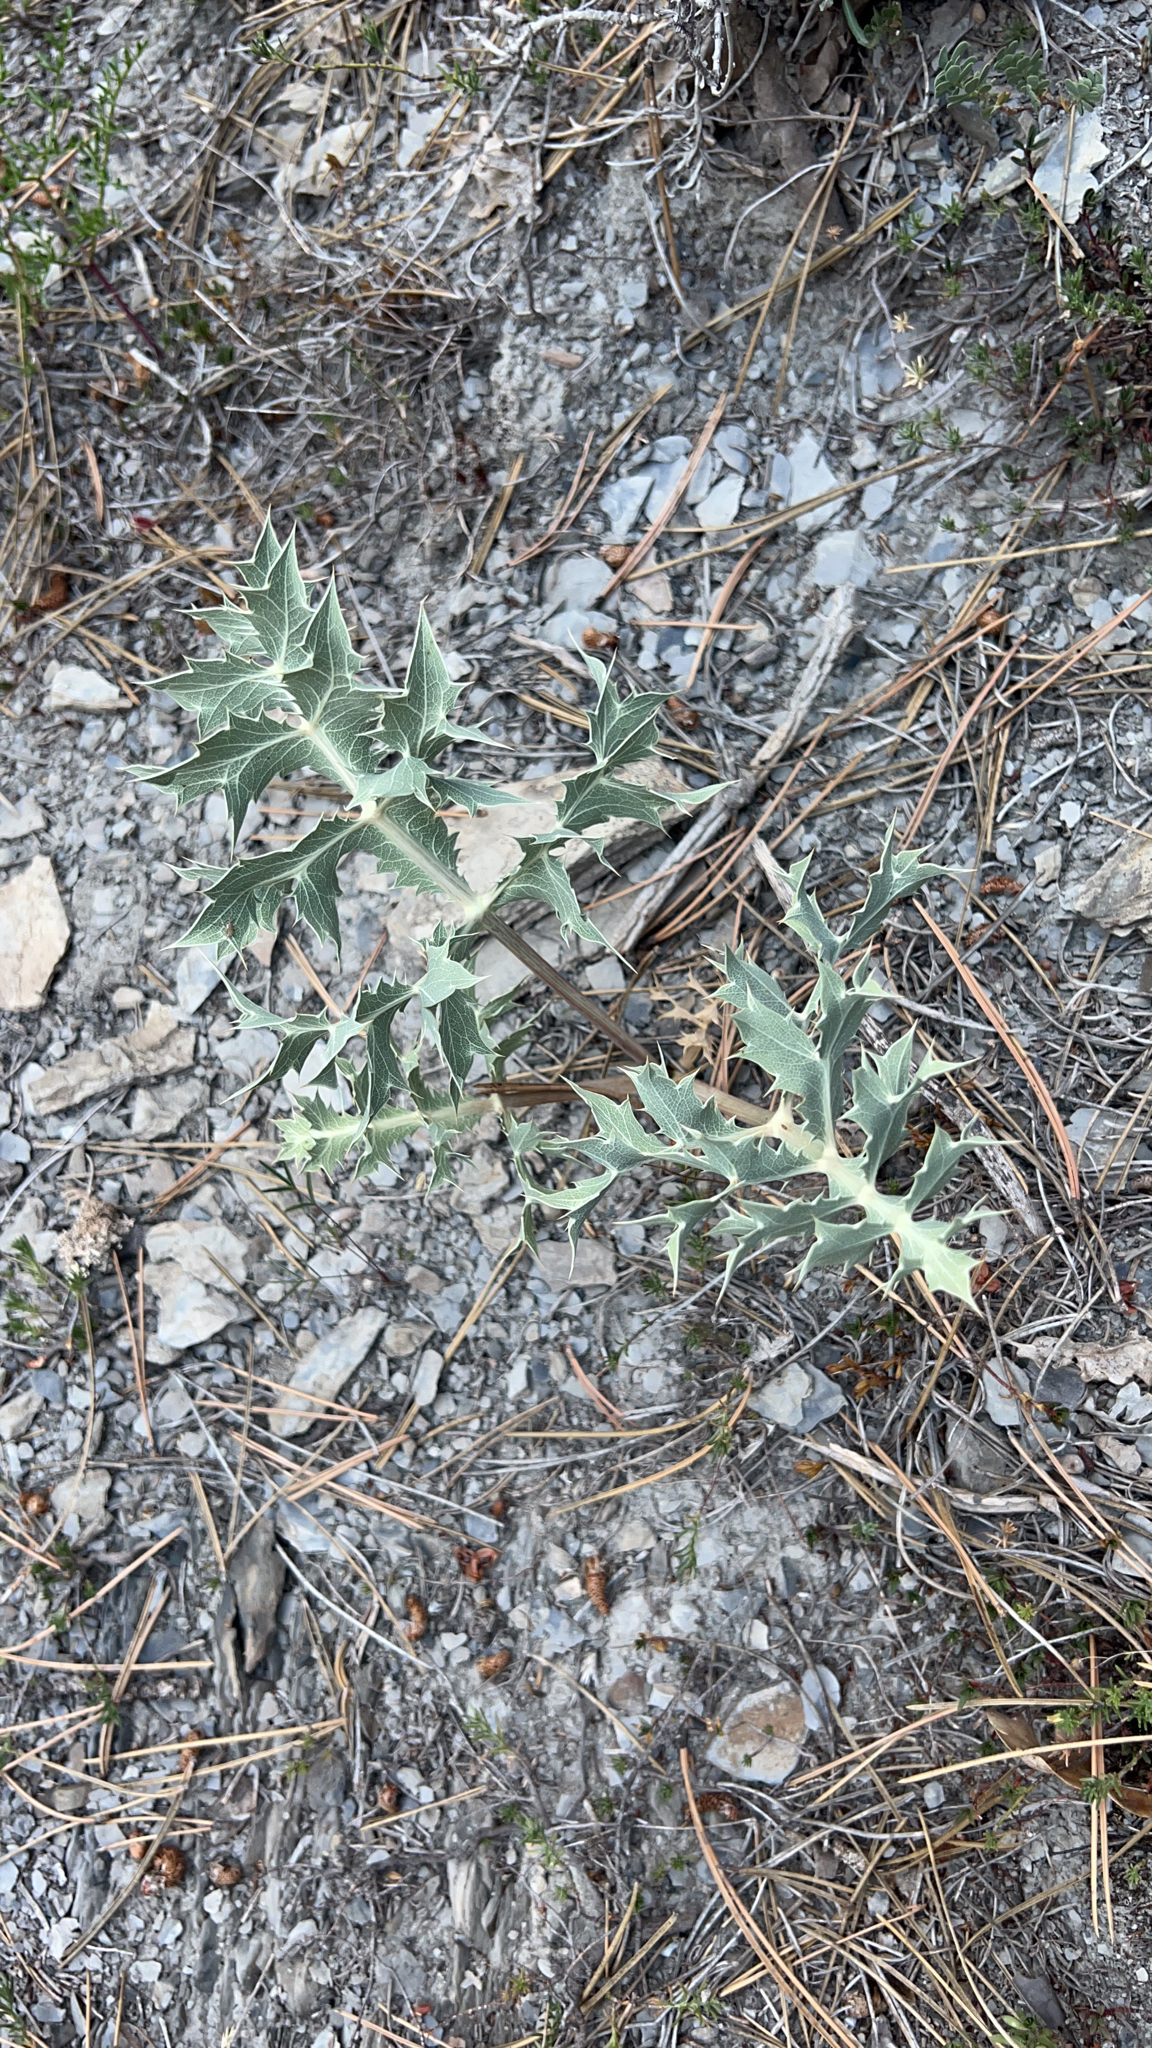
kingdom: Plantae
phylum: Tracheophyta
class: Magnoliopsida
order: Apiales
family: Apiaceae
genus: Eryngium
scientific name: Eryngium campestre
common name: Field eryngo
